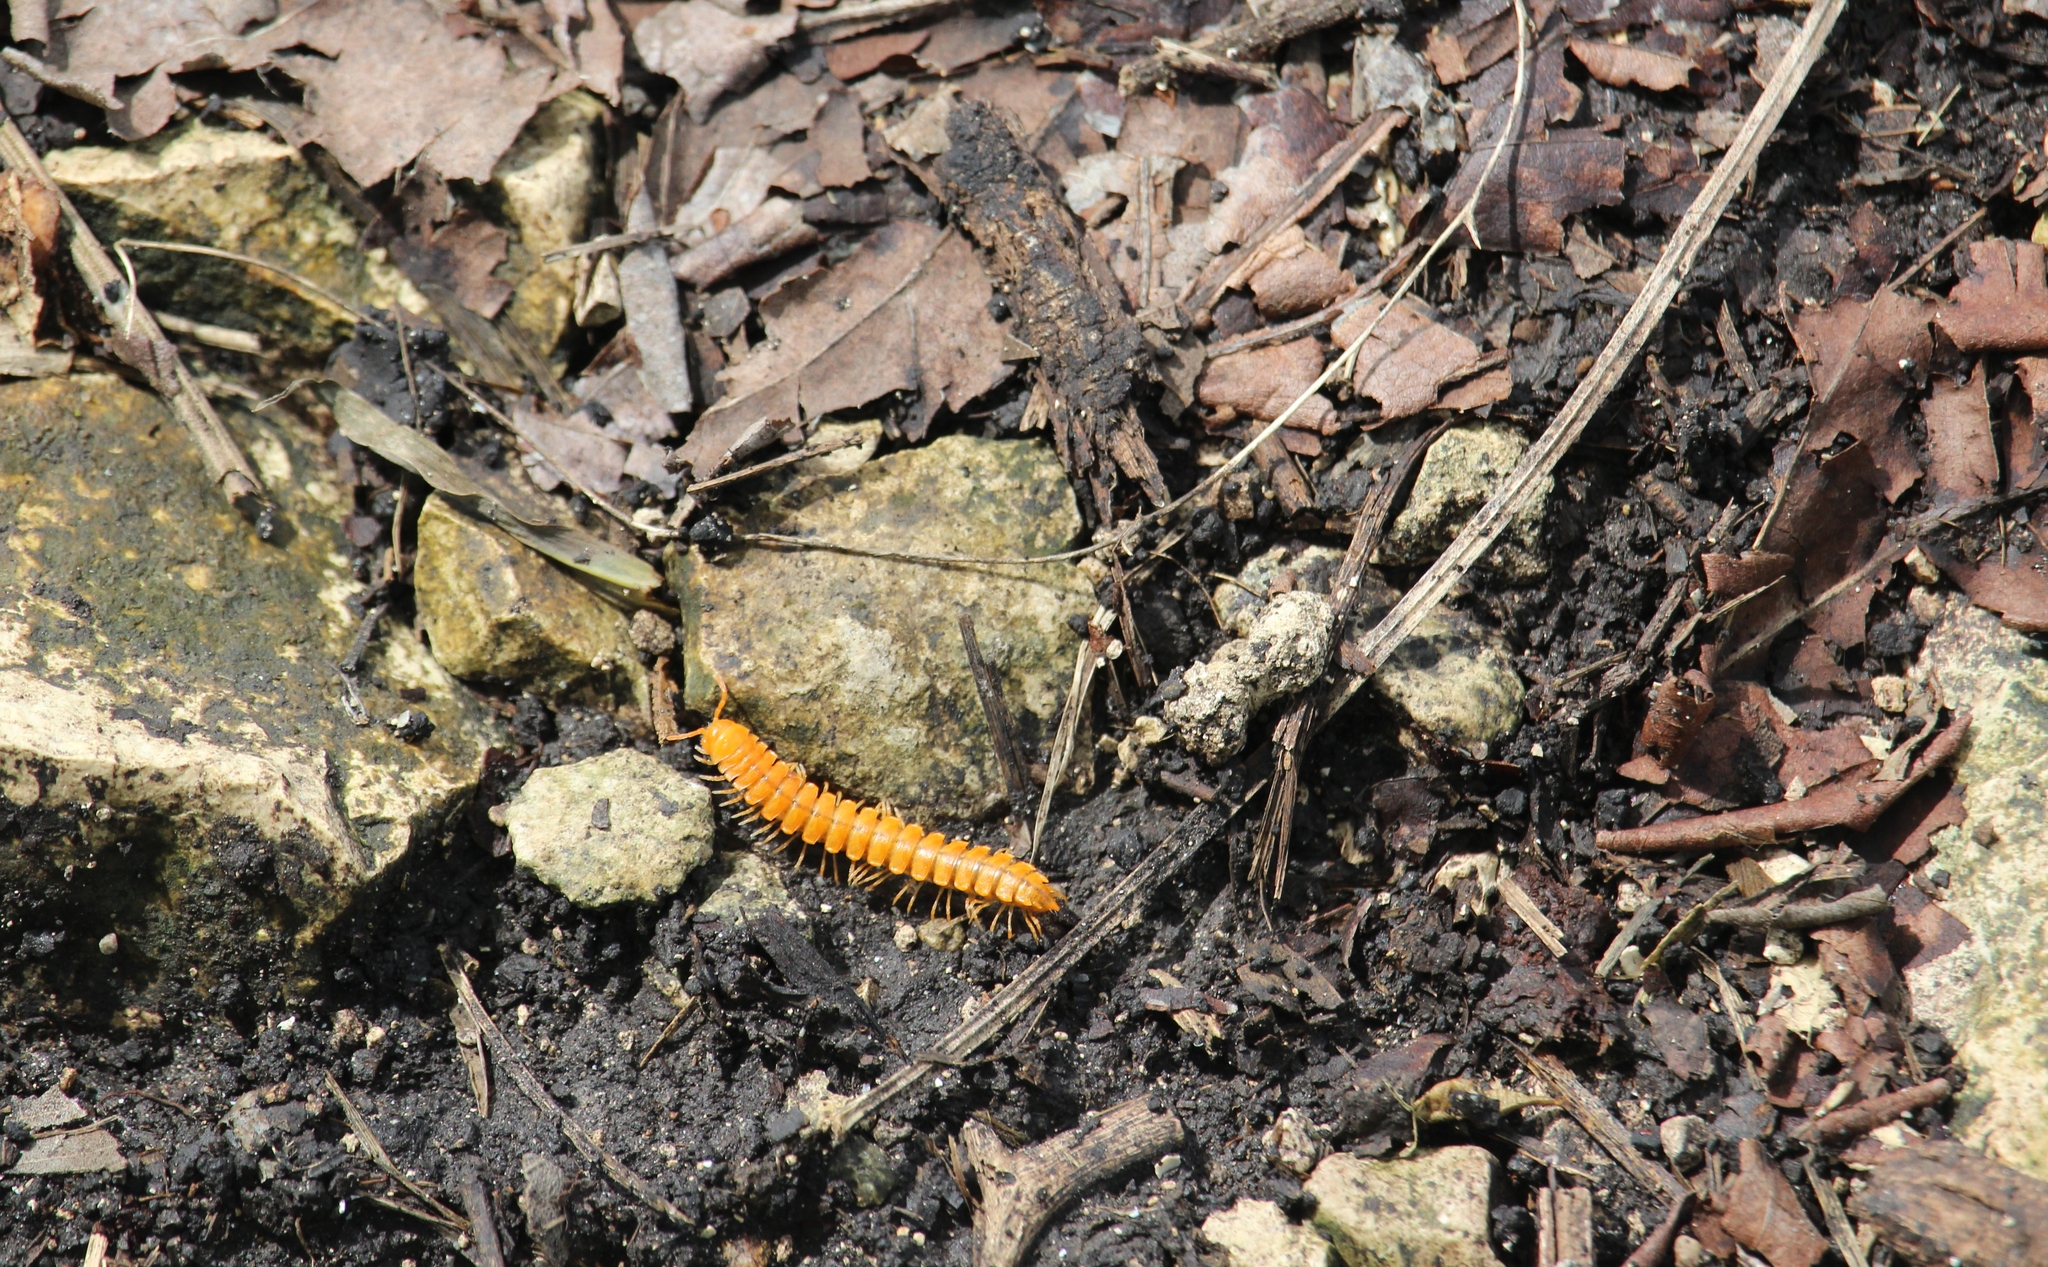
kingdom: Animalia
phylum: Arthropoda
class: Diplopoda
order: Polydesmida
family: Rhachodesmidae
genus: Aceratophallus
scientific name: Aceratophallus maya
